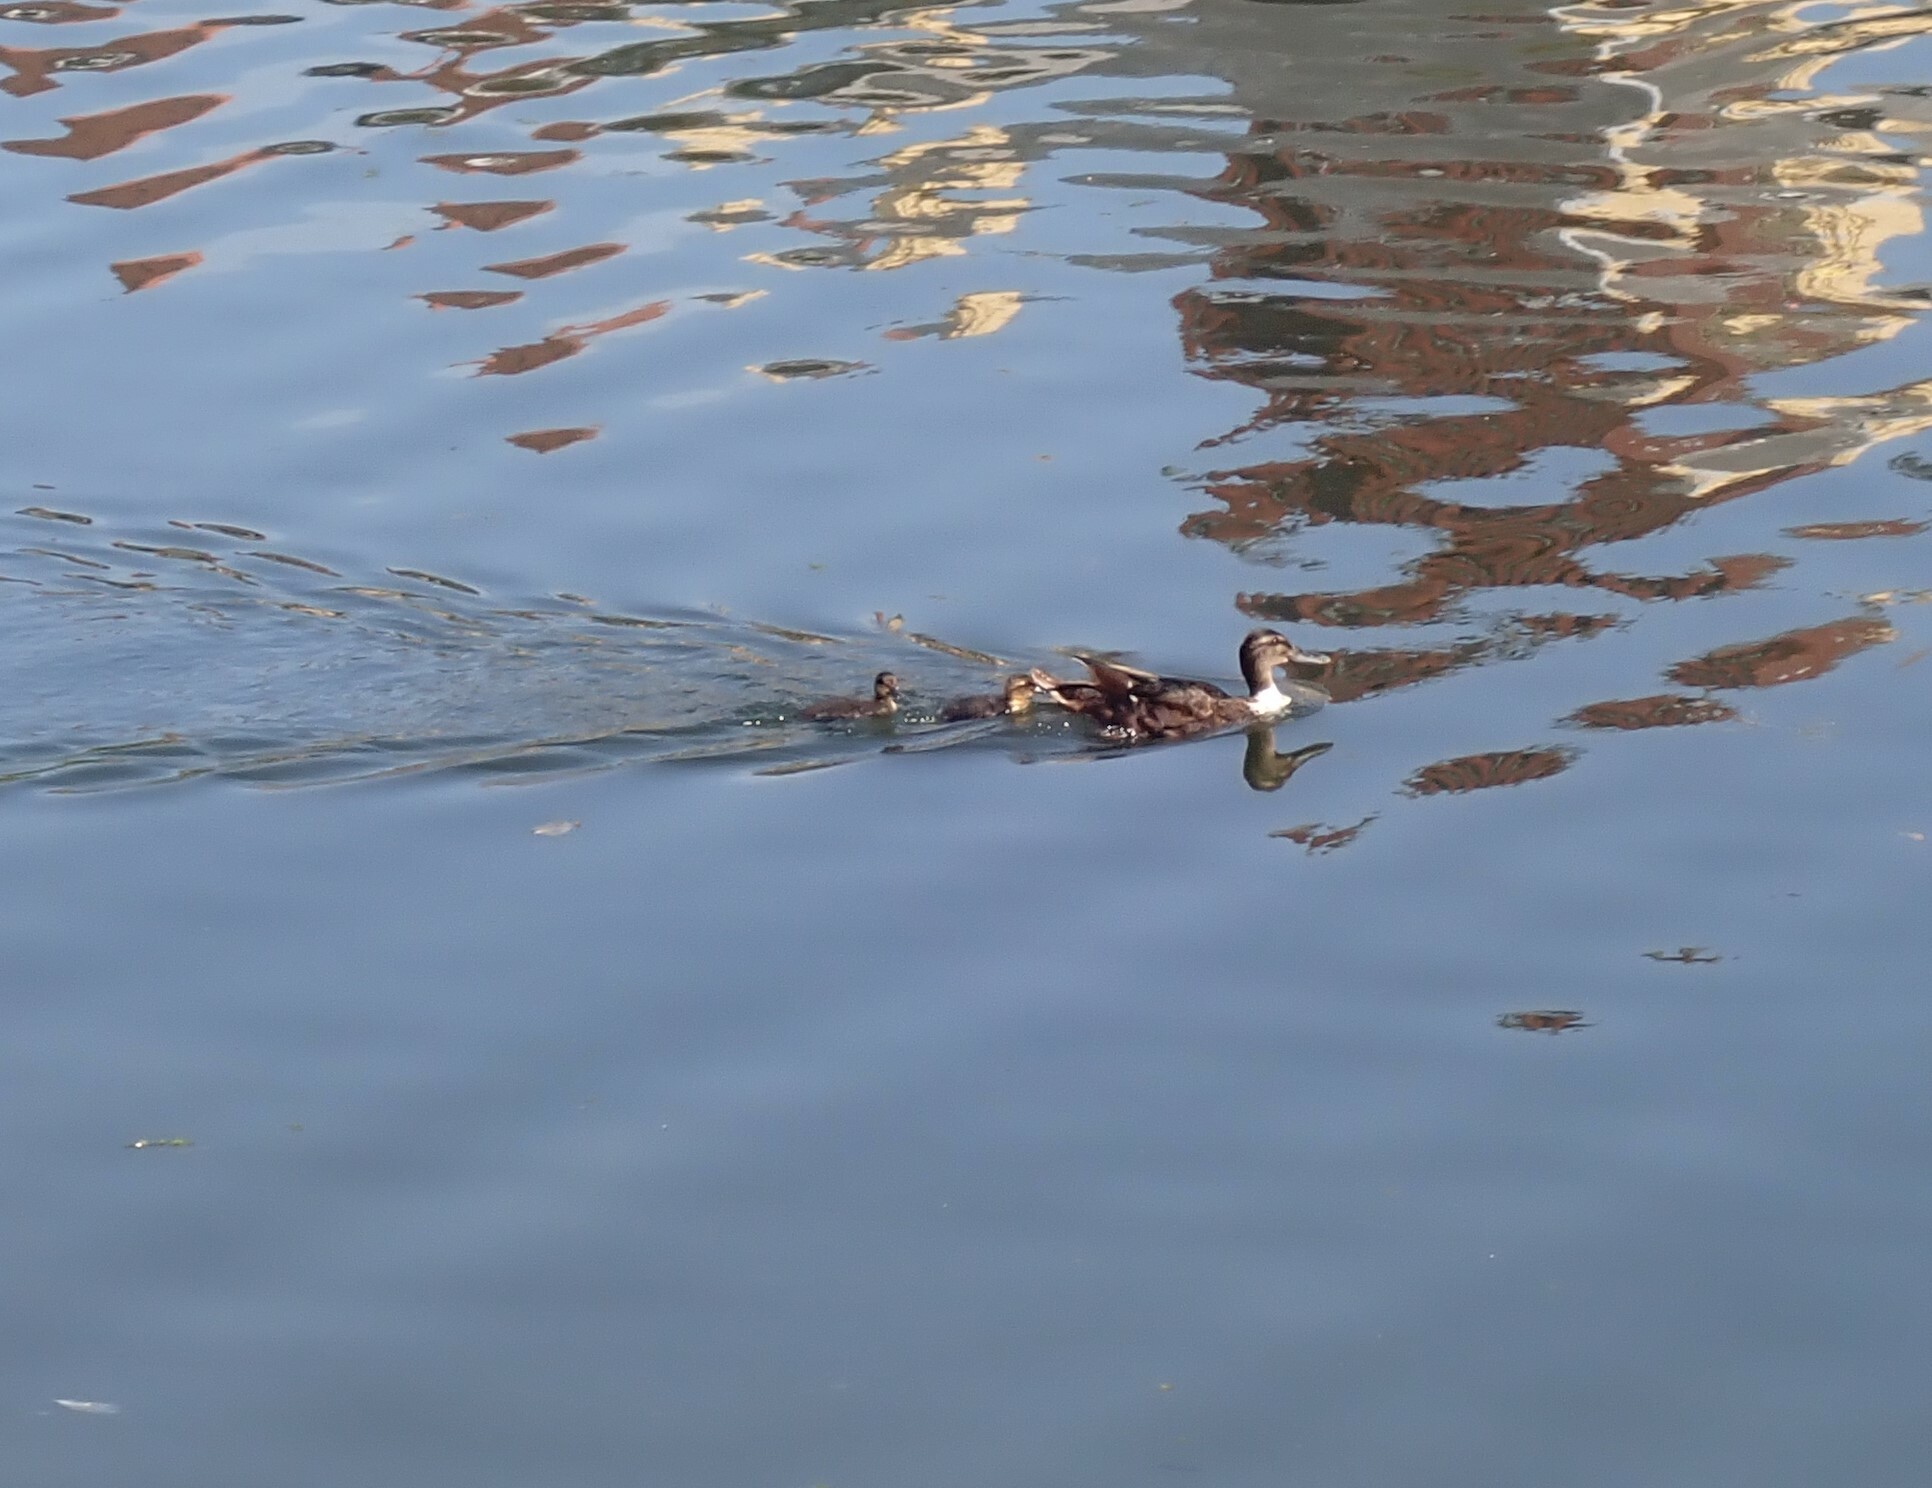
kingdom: Animalia
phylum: Chordata
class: Aves
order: Anseriformes
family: Anatidae
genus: Anas
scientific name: Anas platyrhynchos
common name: Mallard
